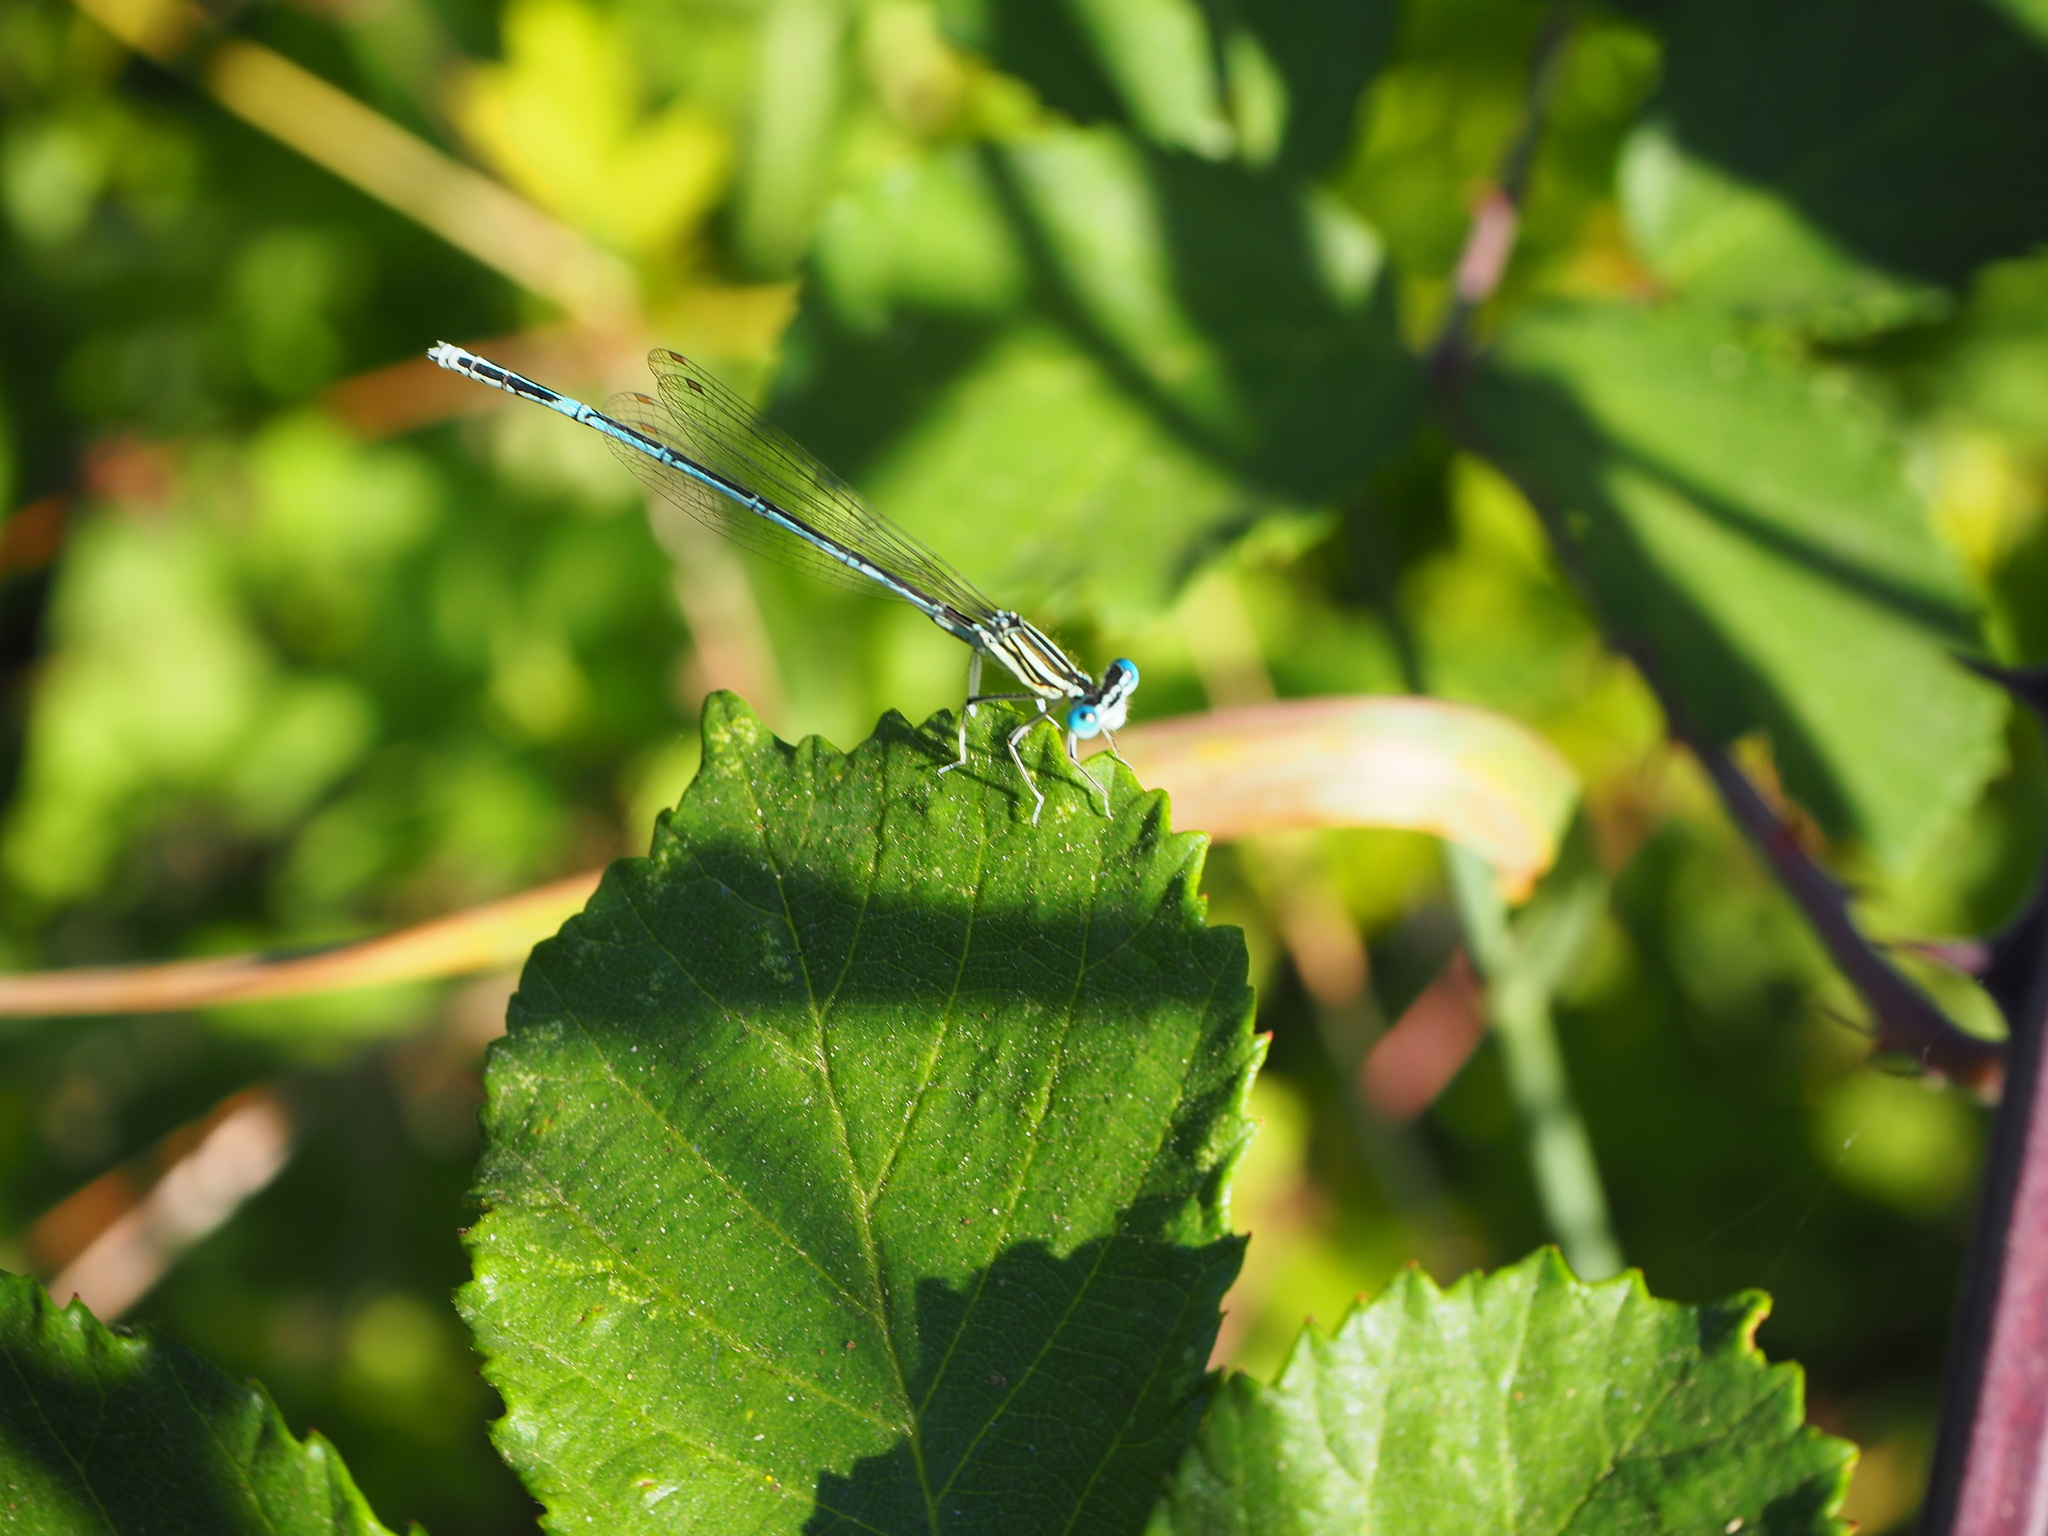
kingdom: Animalia
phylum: Arthropoda
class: Insecta
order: Odonata
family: Platycnemididae
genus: Platycnemis
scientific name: Platycnemis pennipes
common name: White-legged damselfly
